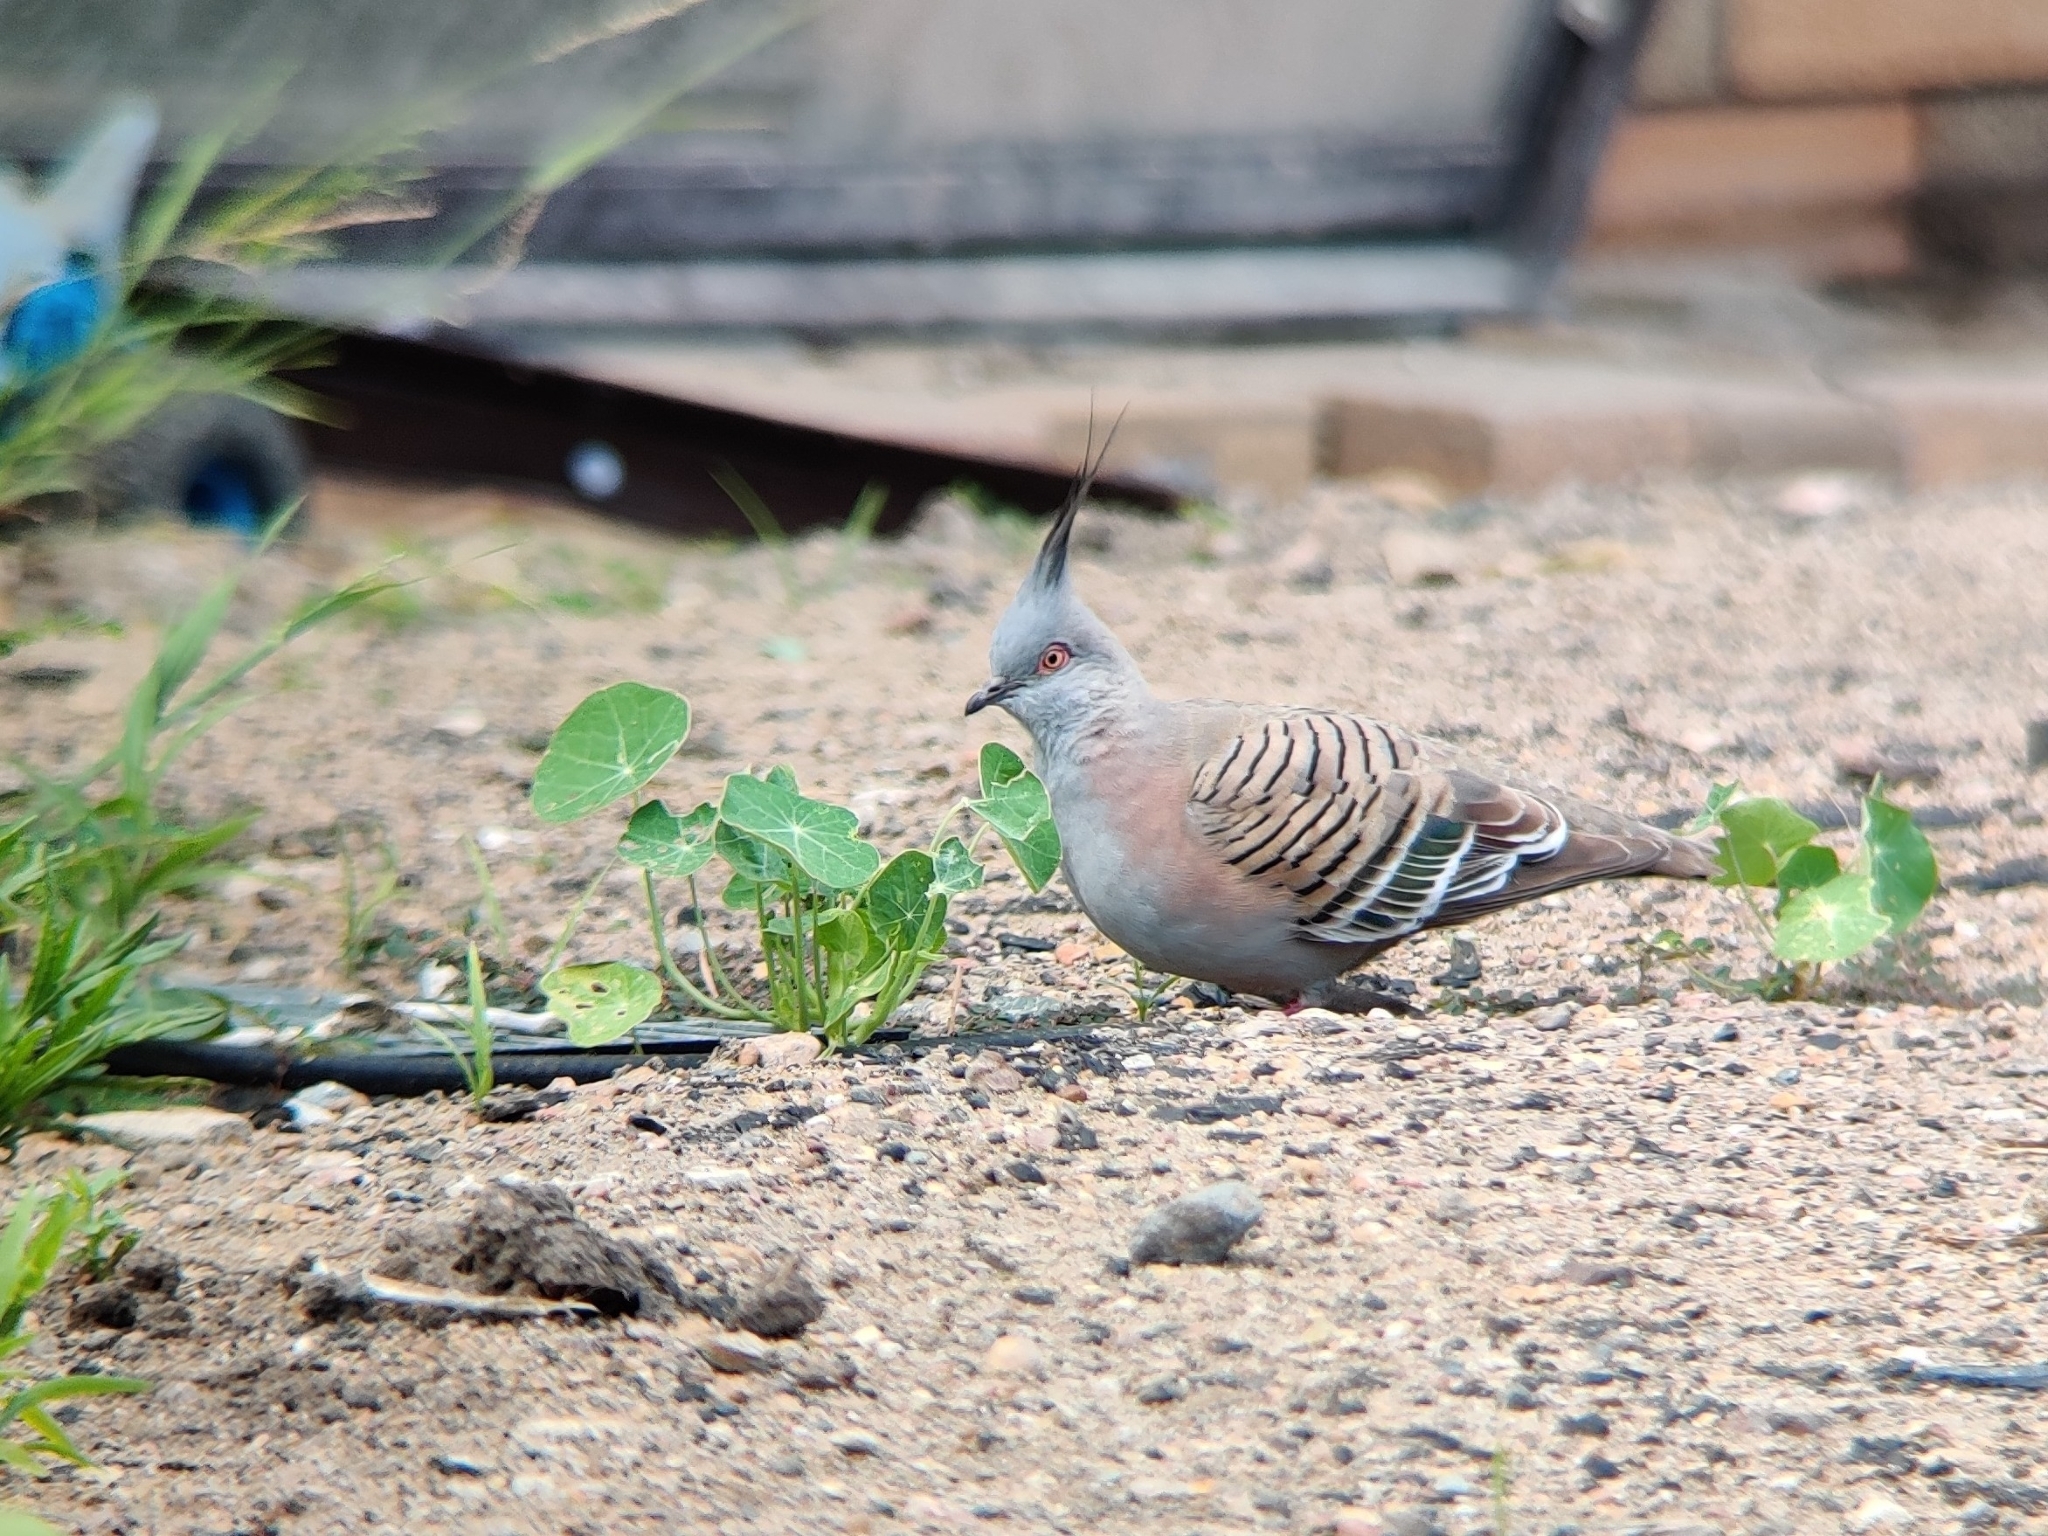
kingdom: Animalia
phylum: Chordata
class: Aves
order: Columbiformes
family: Columbidae
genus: Ocyphaps
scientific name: Ocyphaps lophotes
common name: Crested pigeon
